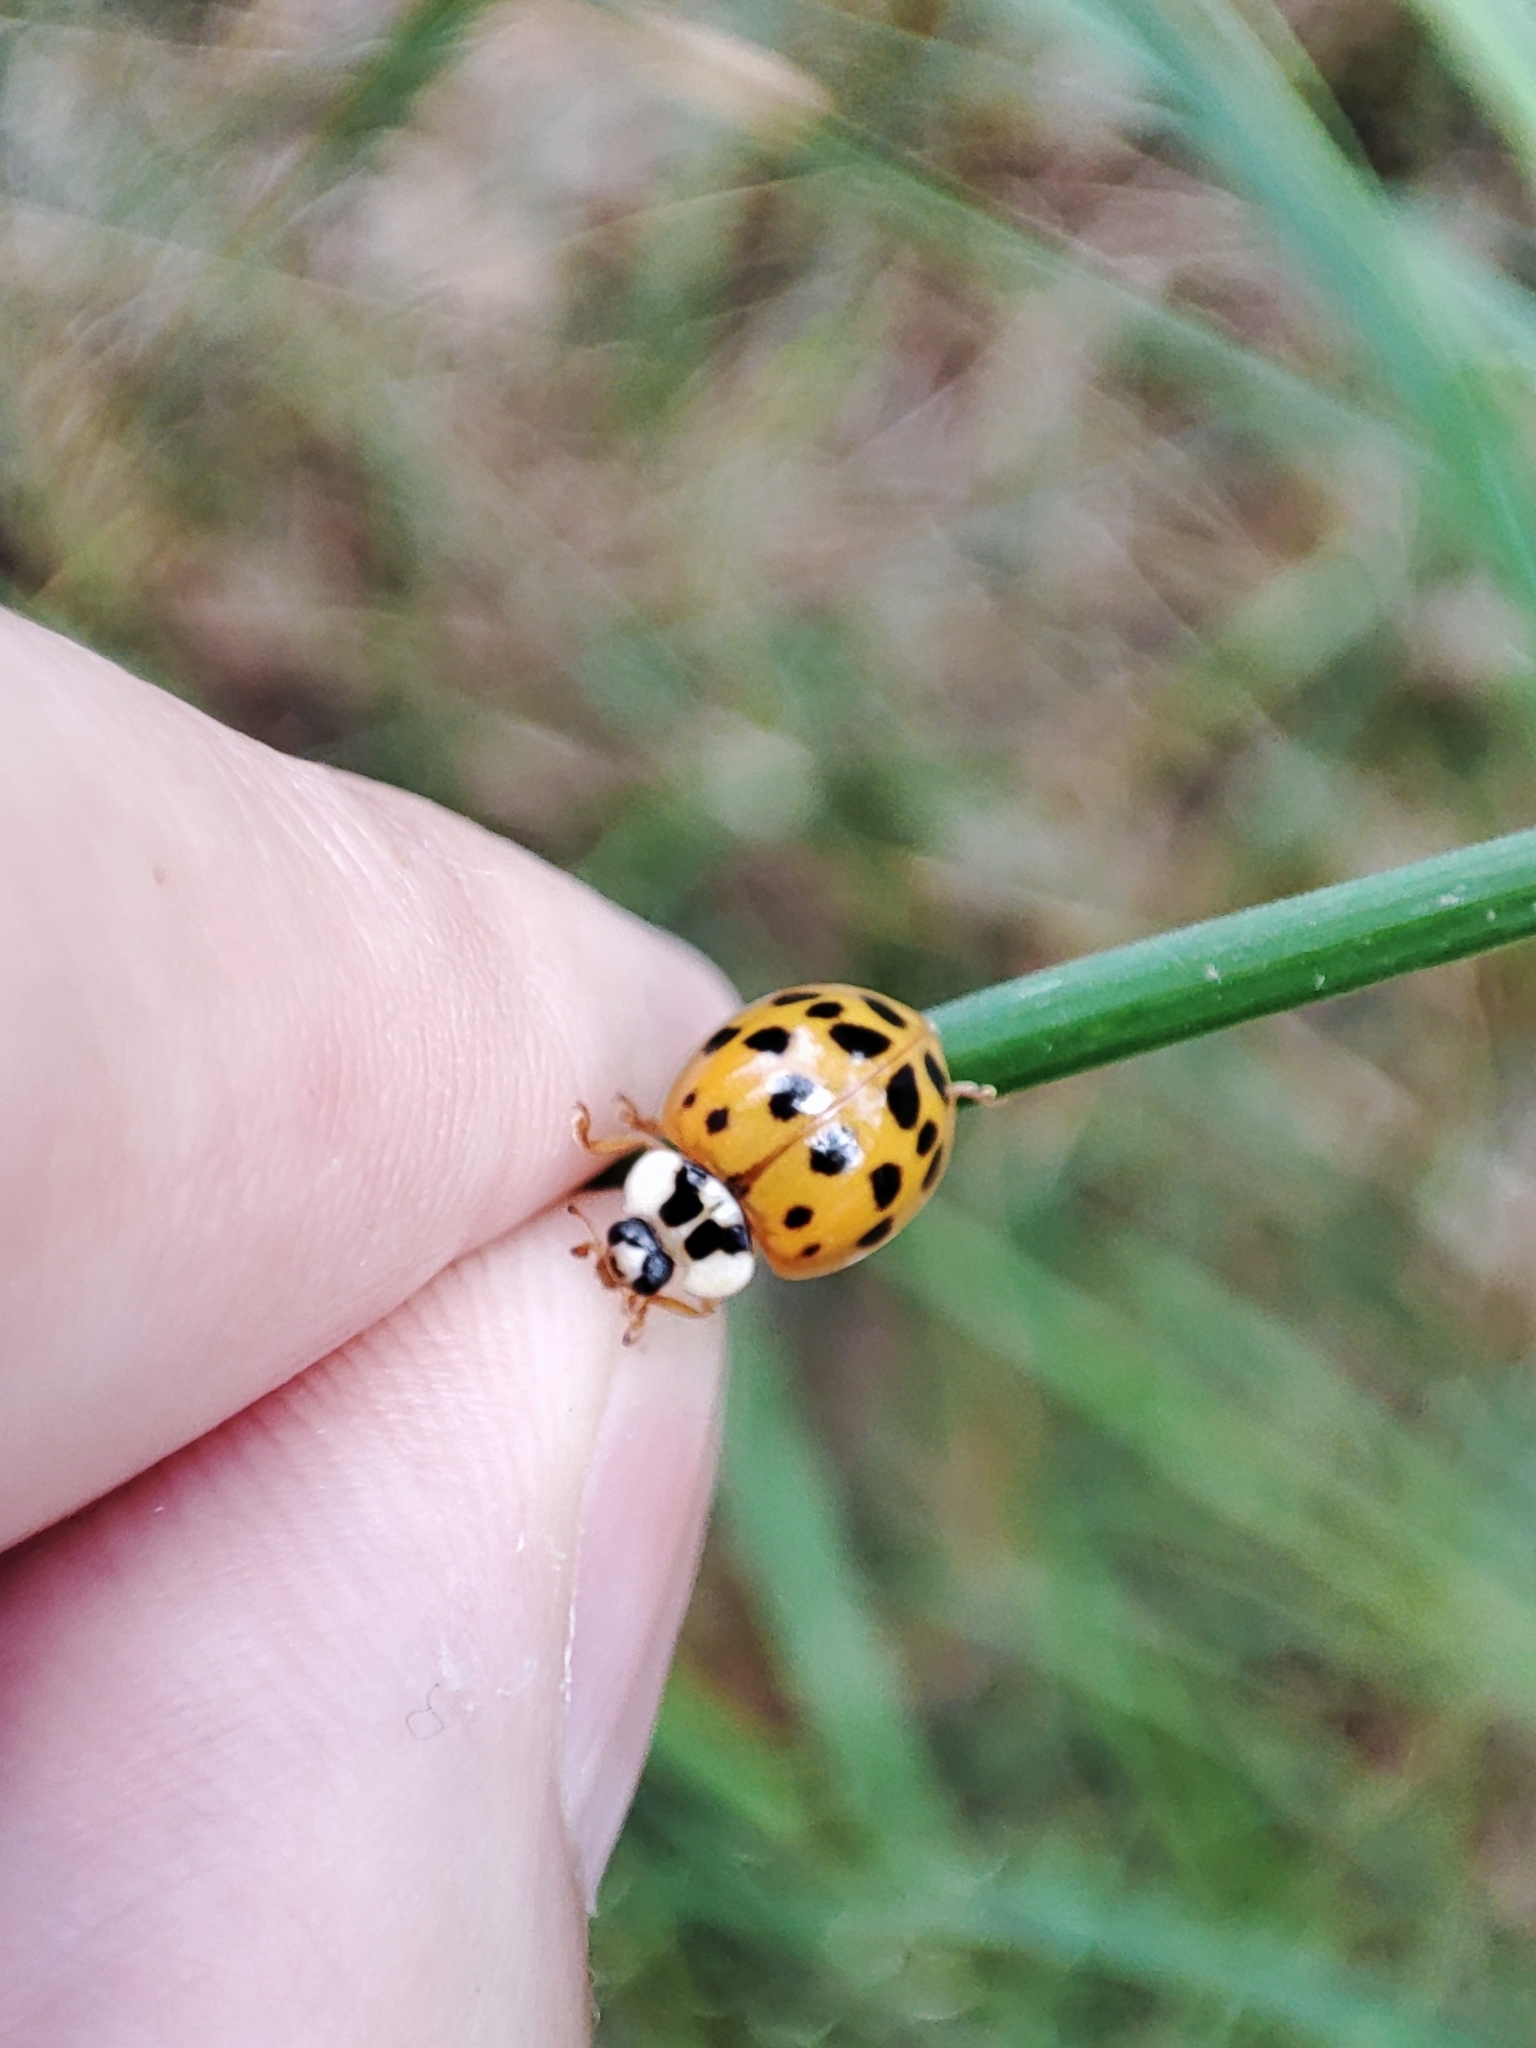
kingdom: Animalia
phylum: Arthropoda
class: Insecta
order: Coleoptera
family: Coccinellidae
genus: Harmonia
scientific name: Harmonia axyridis
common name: Harlequin ladybird
